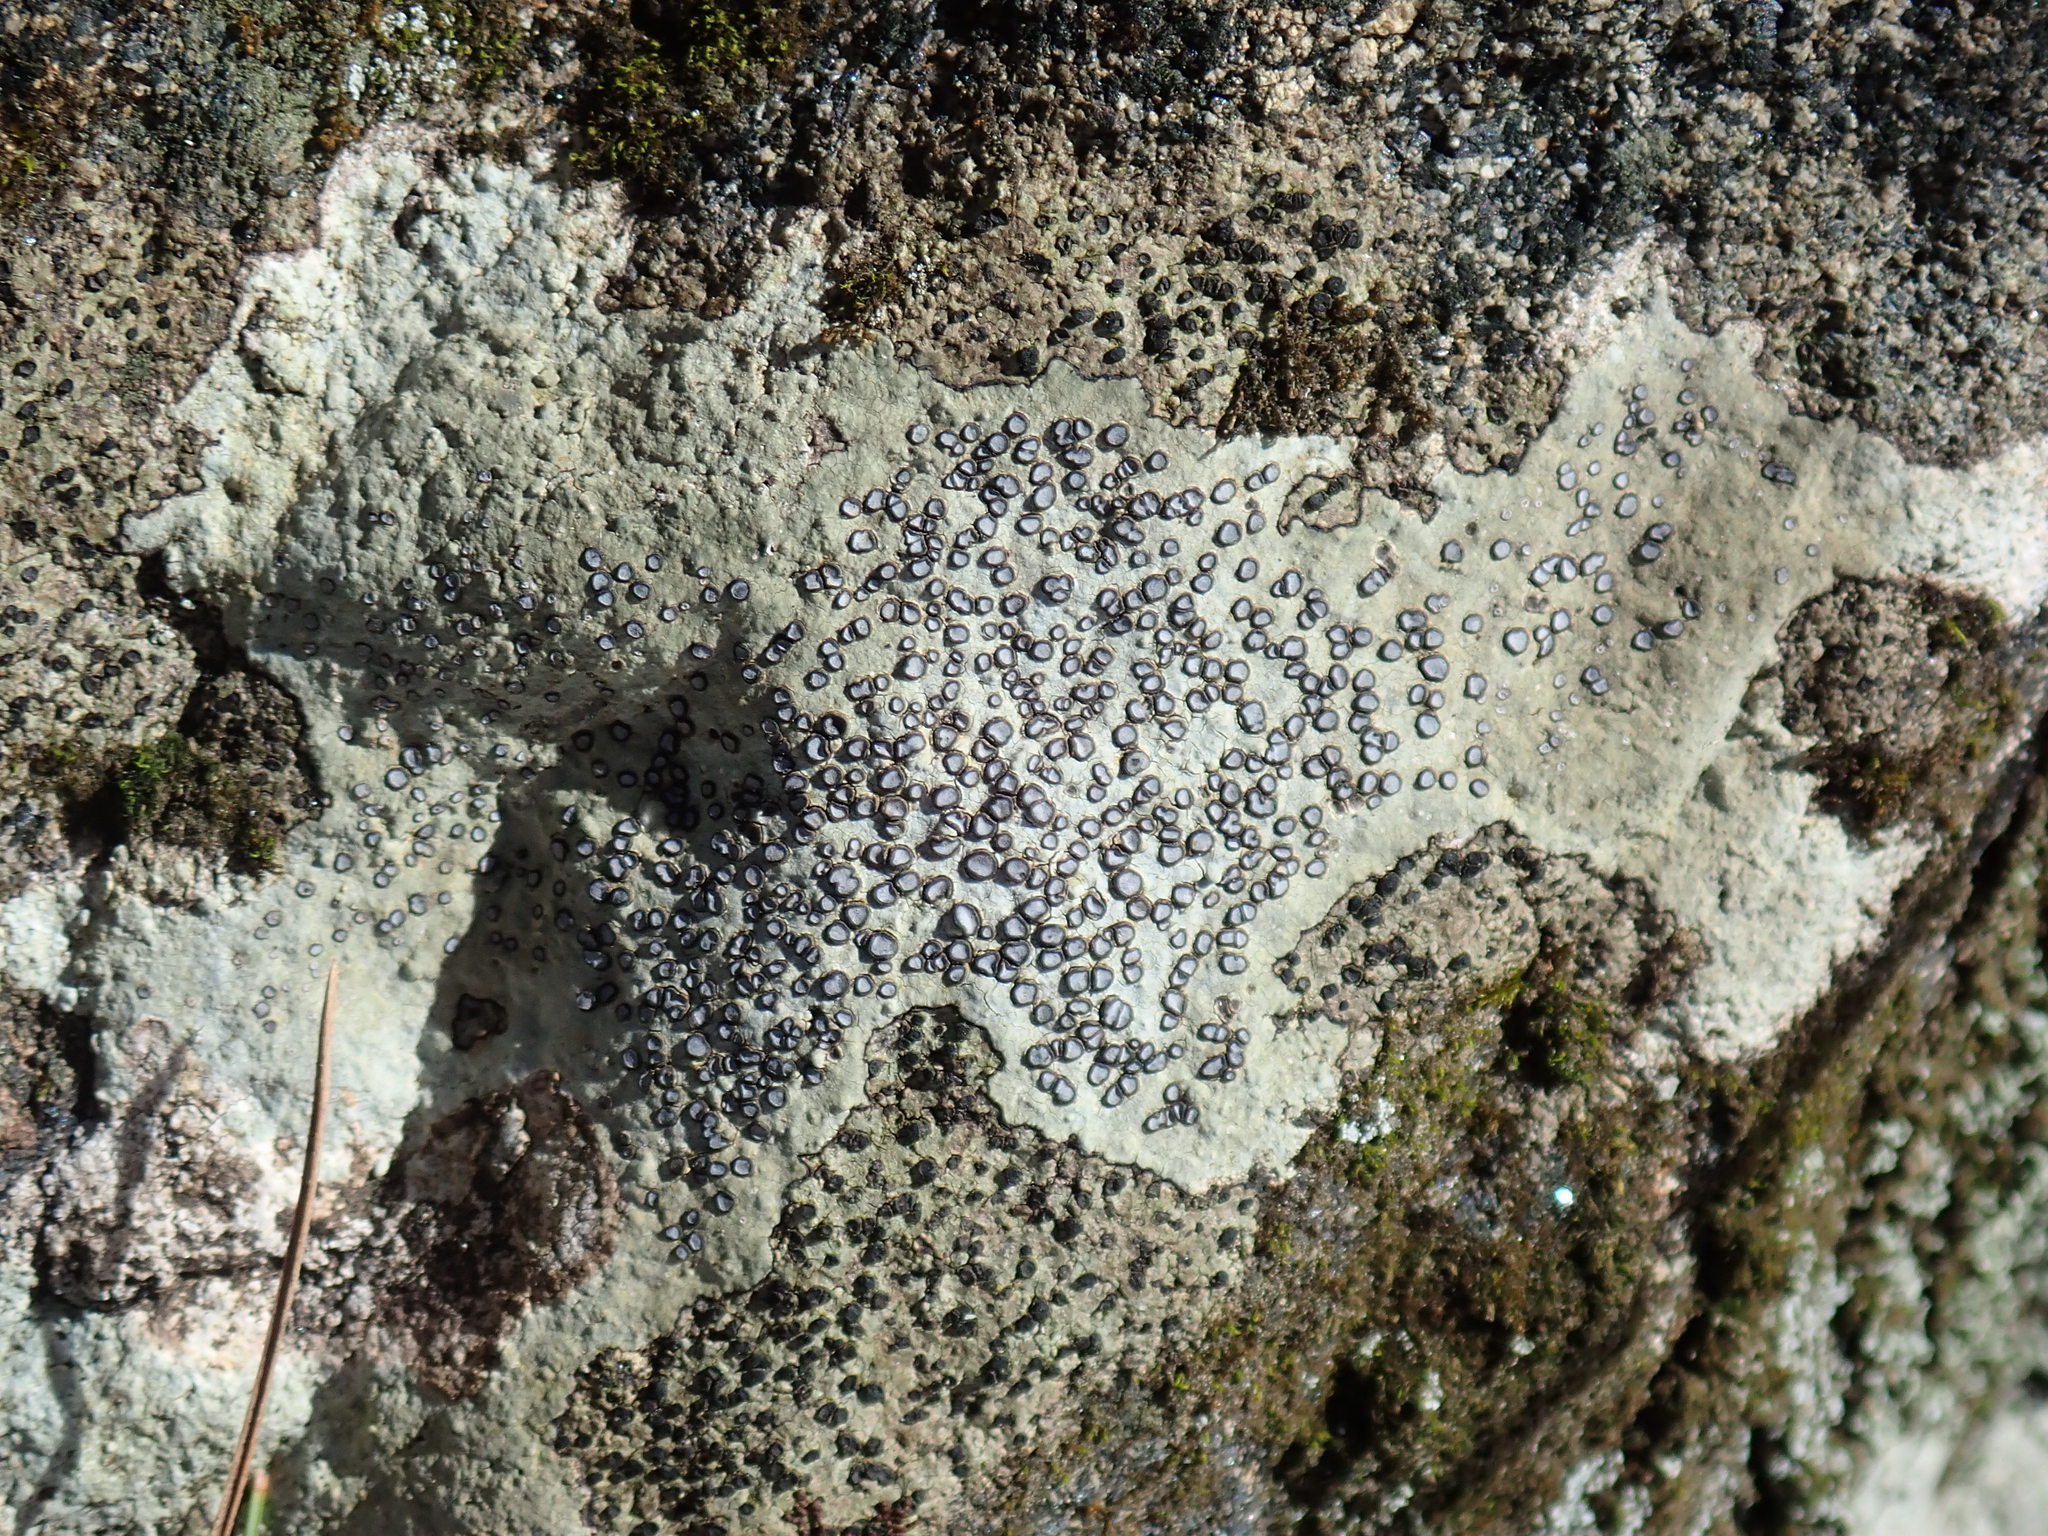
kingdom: Fungi
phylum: Ascomycota
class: Lecanoromycetes
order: Lecideales
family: Lecideaceae
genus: Porpidia
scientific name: Porpidia albocaerulescens
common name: Smokey-eyed boulder lichen
